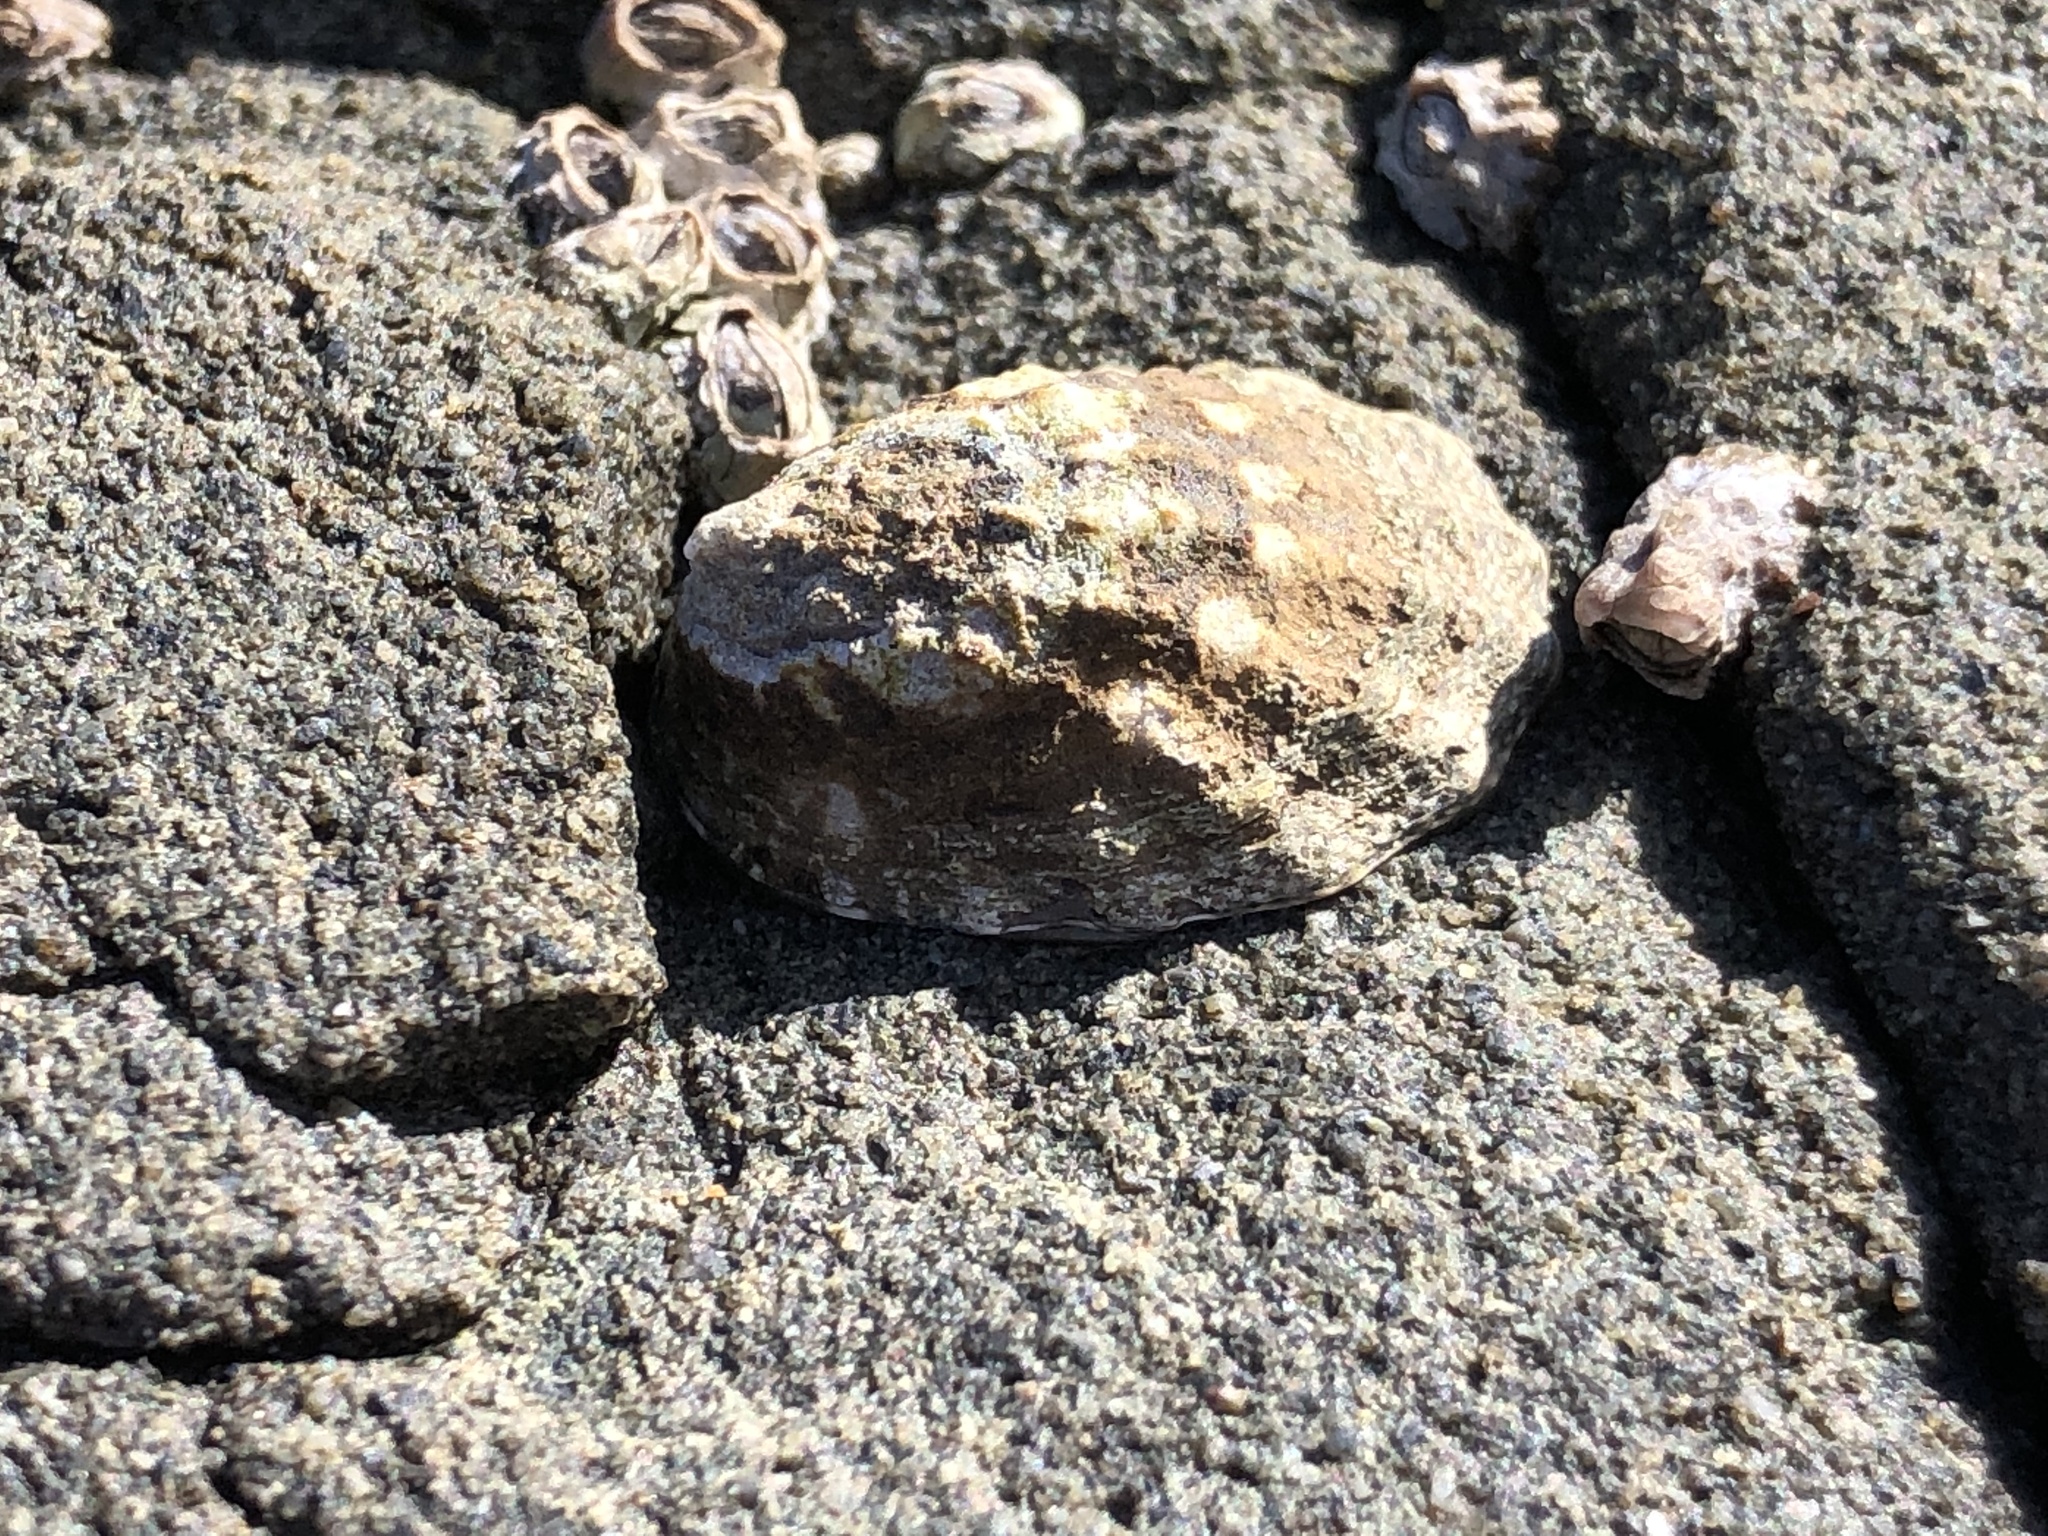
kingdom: Animalia
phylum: Mollusca
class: Gastropoda
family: Lottiidae
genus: Lottia
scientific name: Lottia scabra
